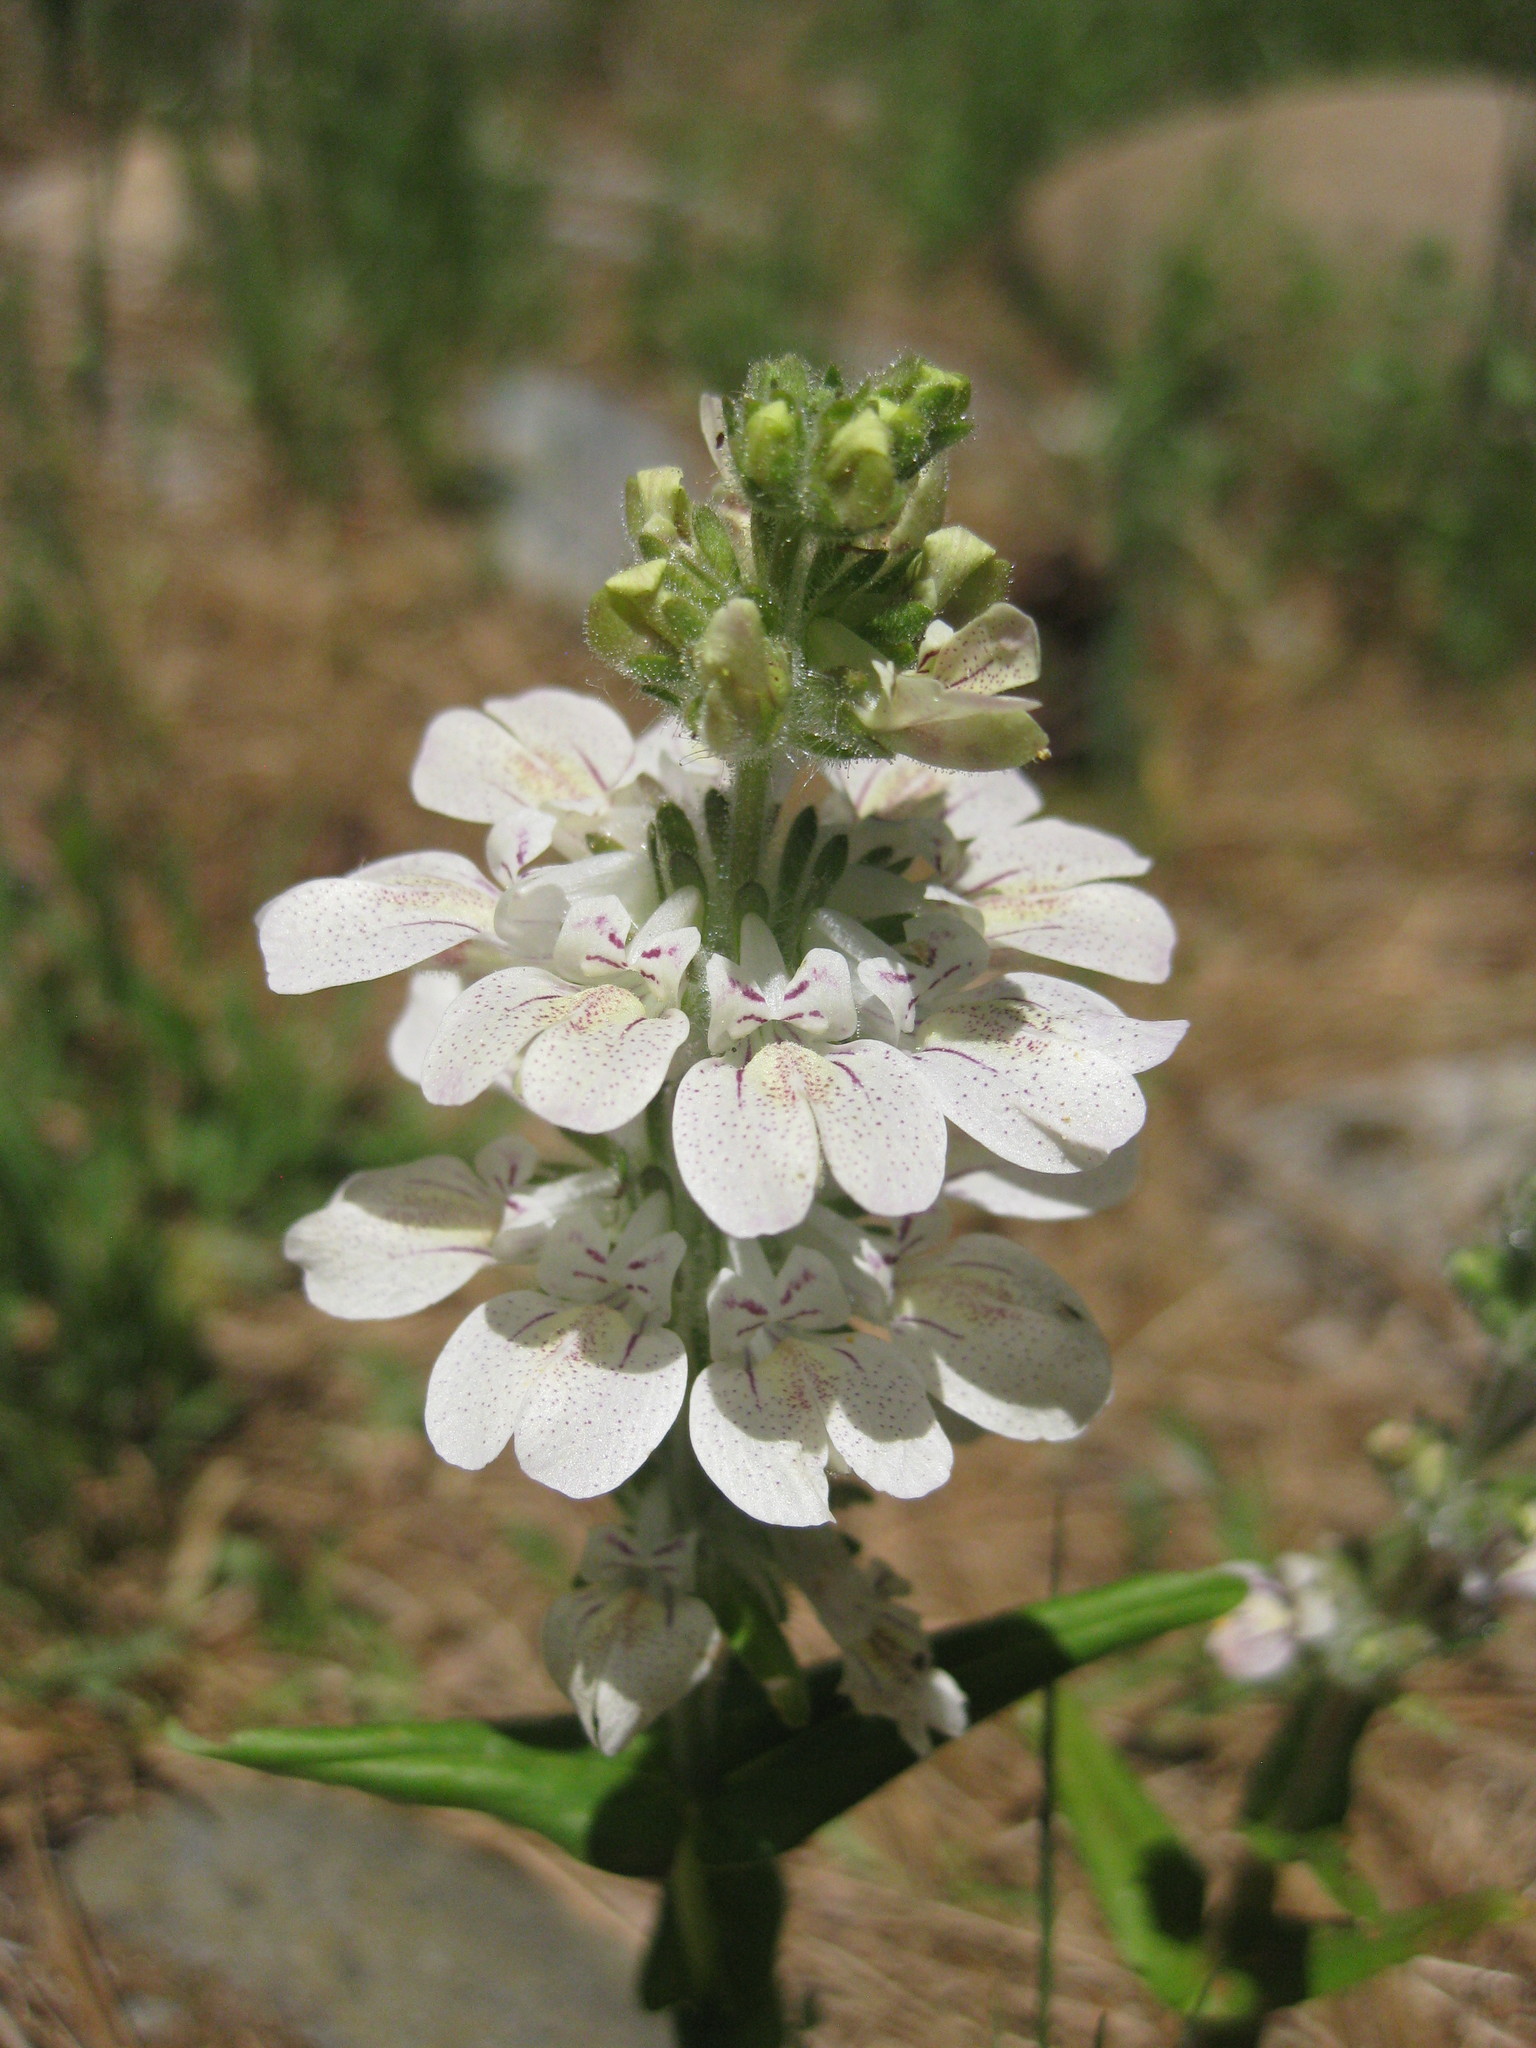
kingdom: Plantae
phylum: Tracheophyta
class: Magnoliopsida
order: Lamiales
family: Plantaginaceae
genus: Collinsia
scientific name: Collinsia tinctoria
